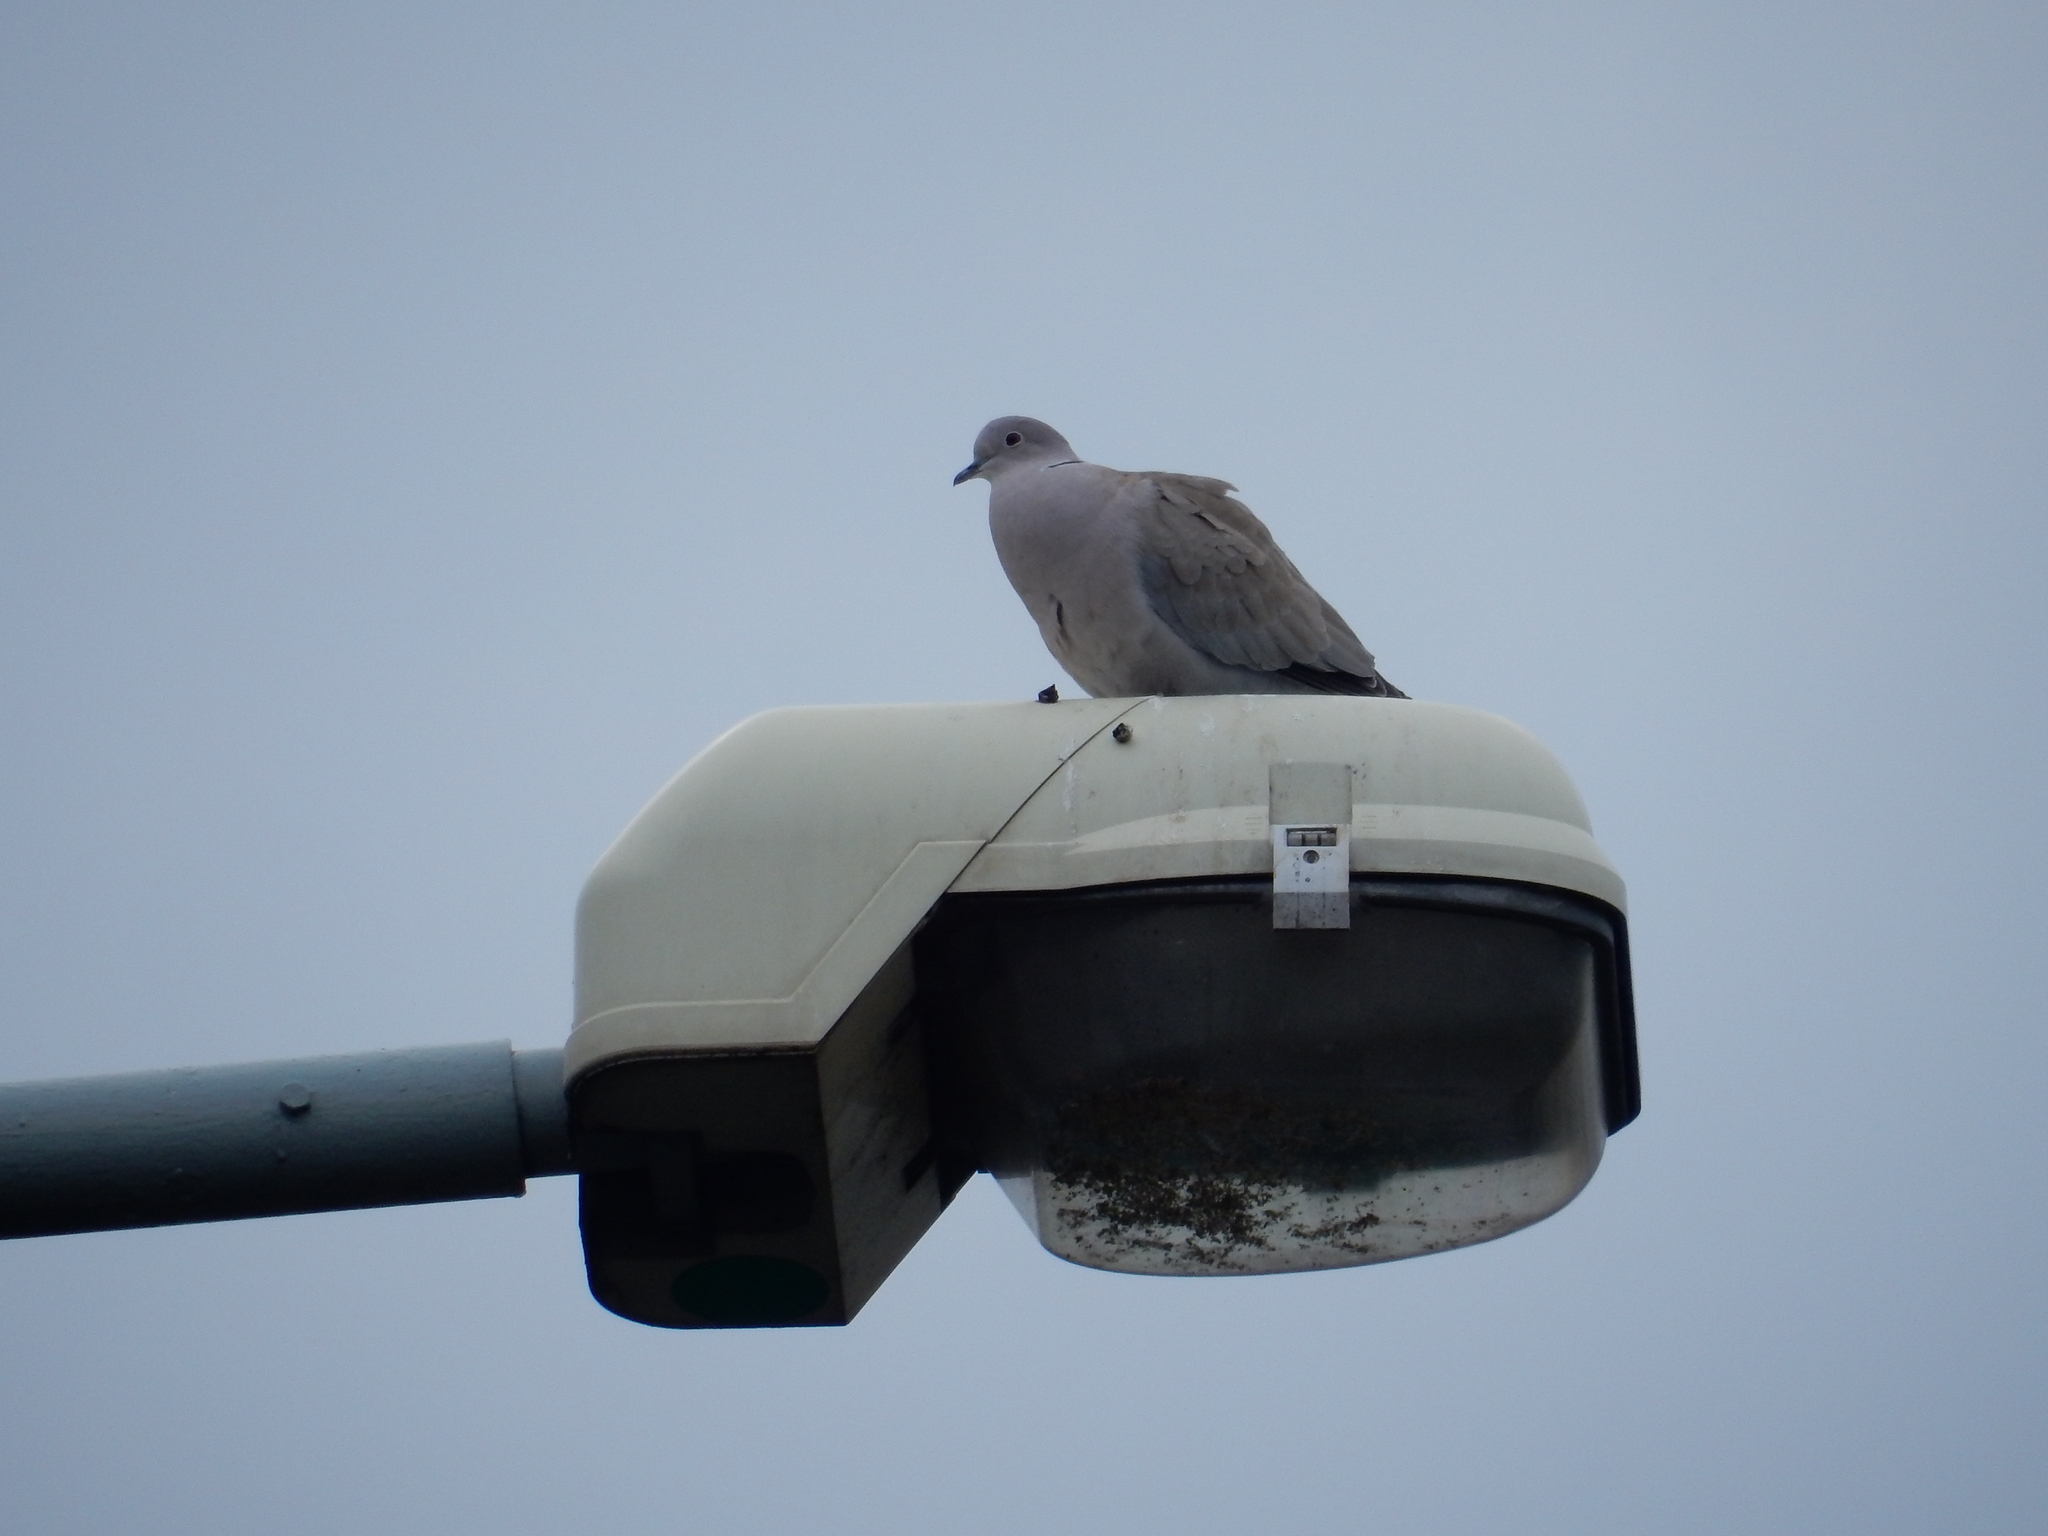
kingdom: Animalia
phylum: Chordata
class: Aves
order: Columbiformes
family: Columbidae
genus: Streptopelia
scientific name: Streptopelia decaocto
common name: Eurasian collared dove
